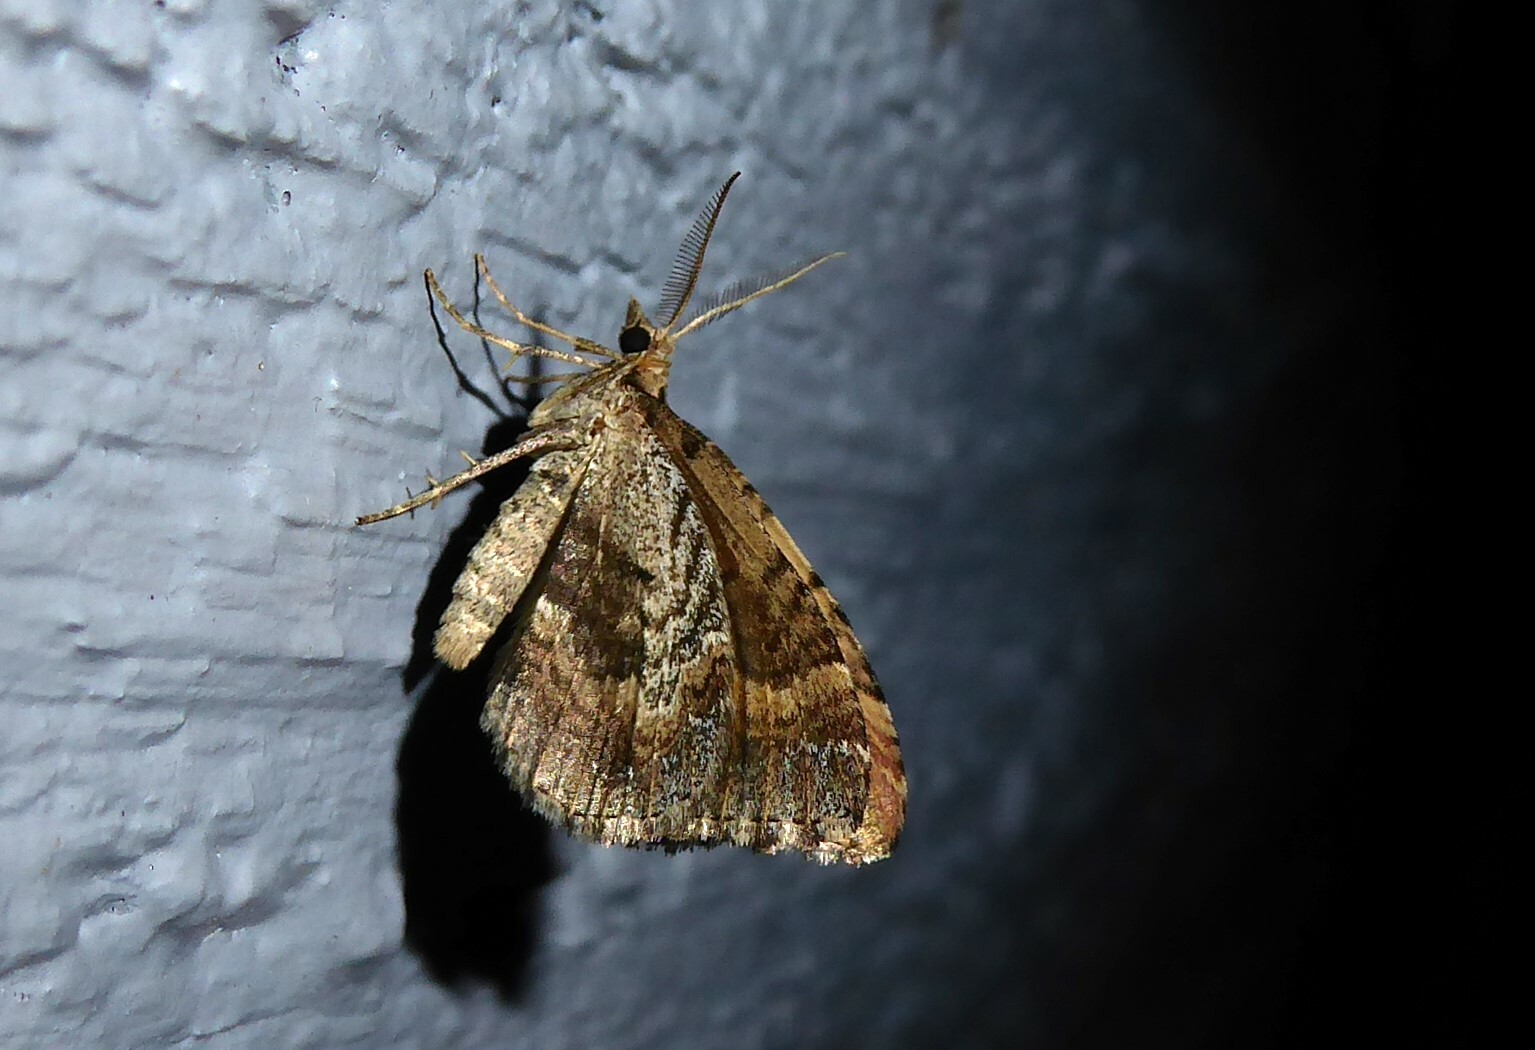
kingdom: Animalia
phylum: Arthropoda
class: Insecta
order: Lepidoptera
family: Geometridae
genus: Asaphodes
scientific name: Asaphodes aegrota
